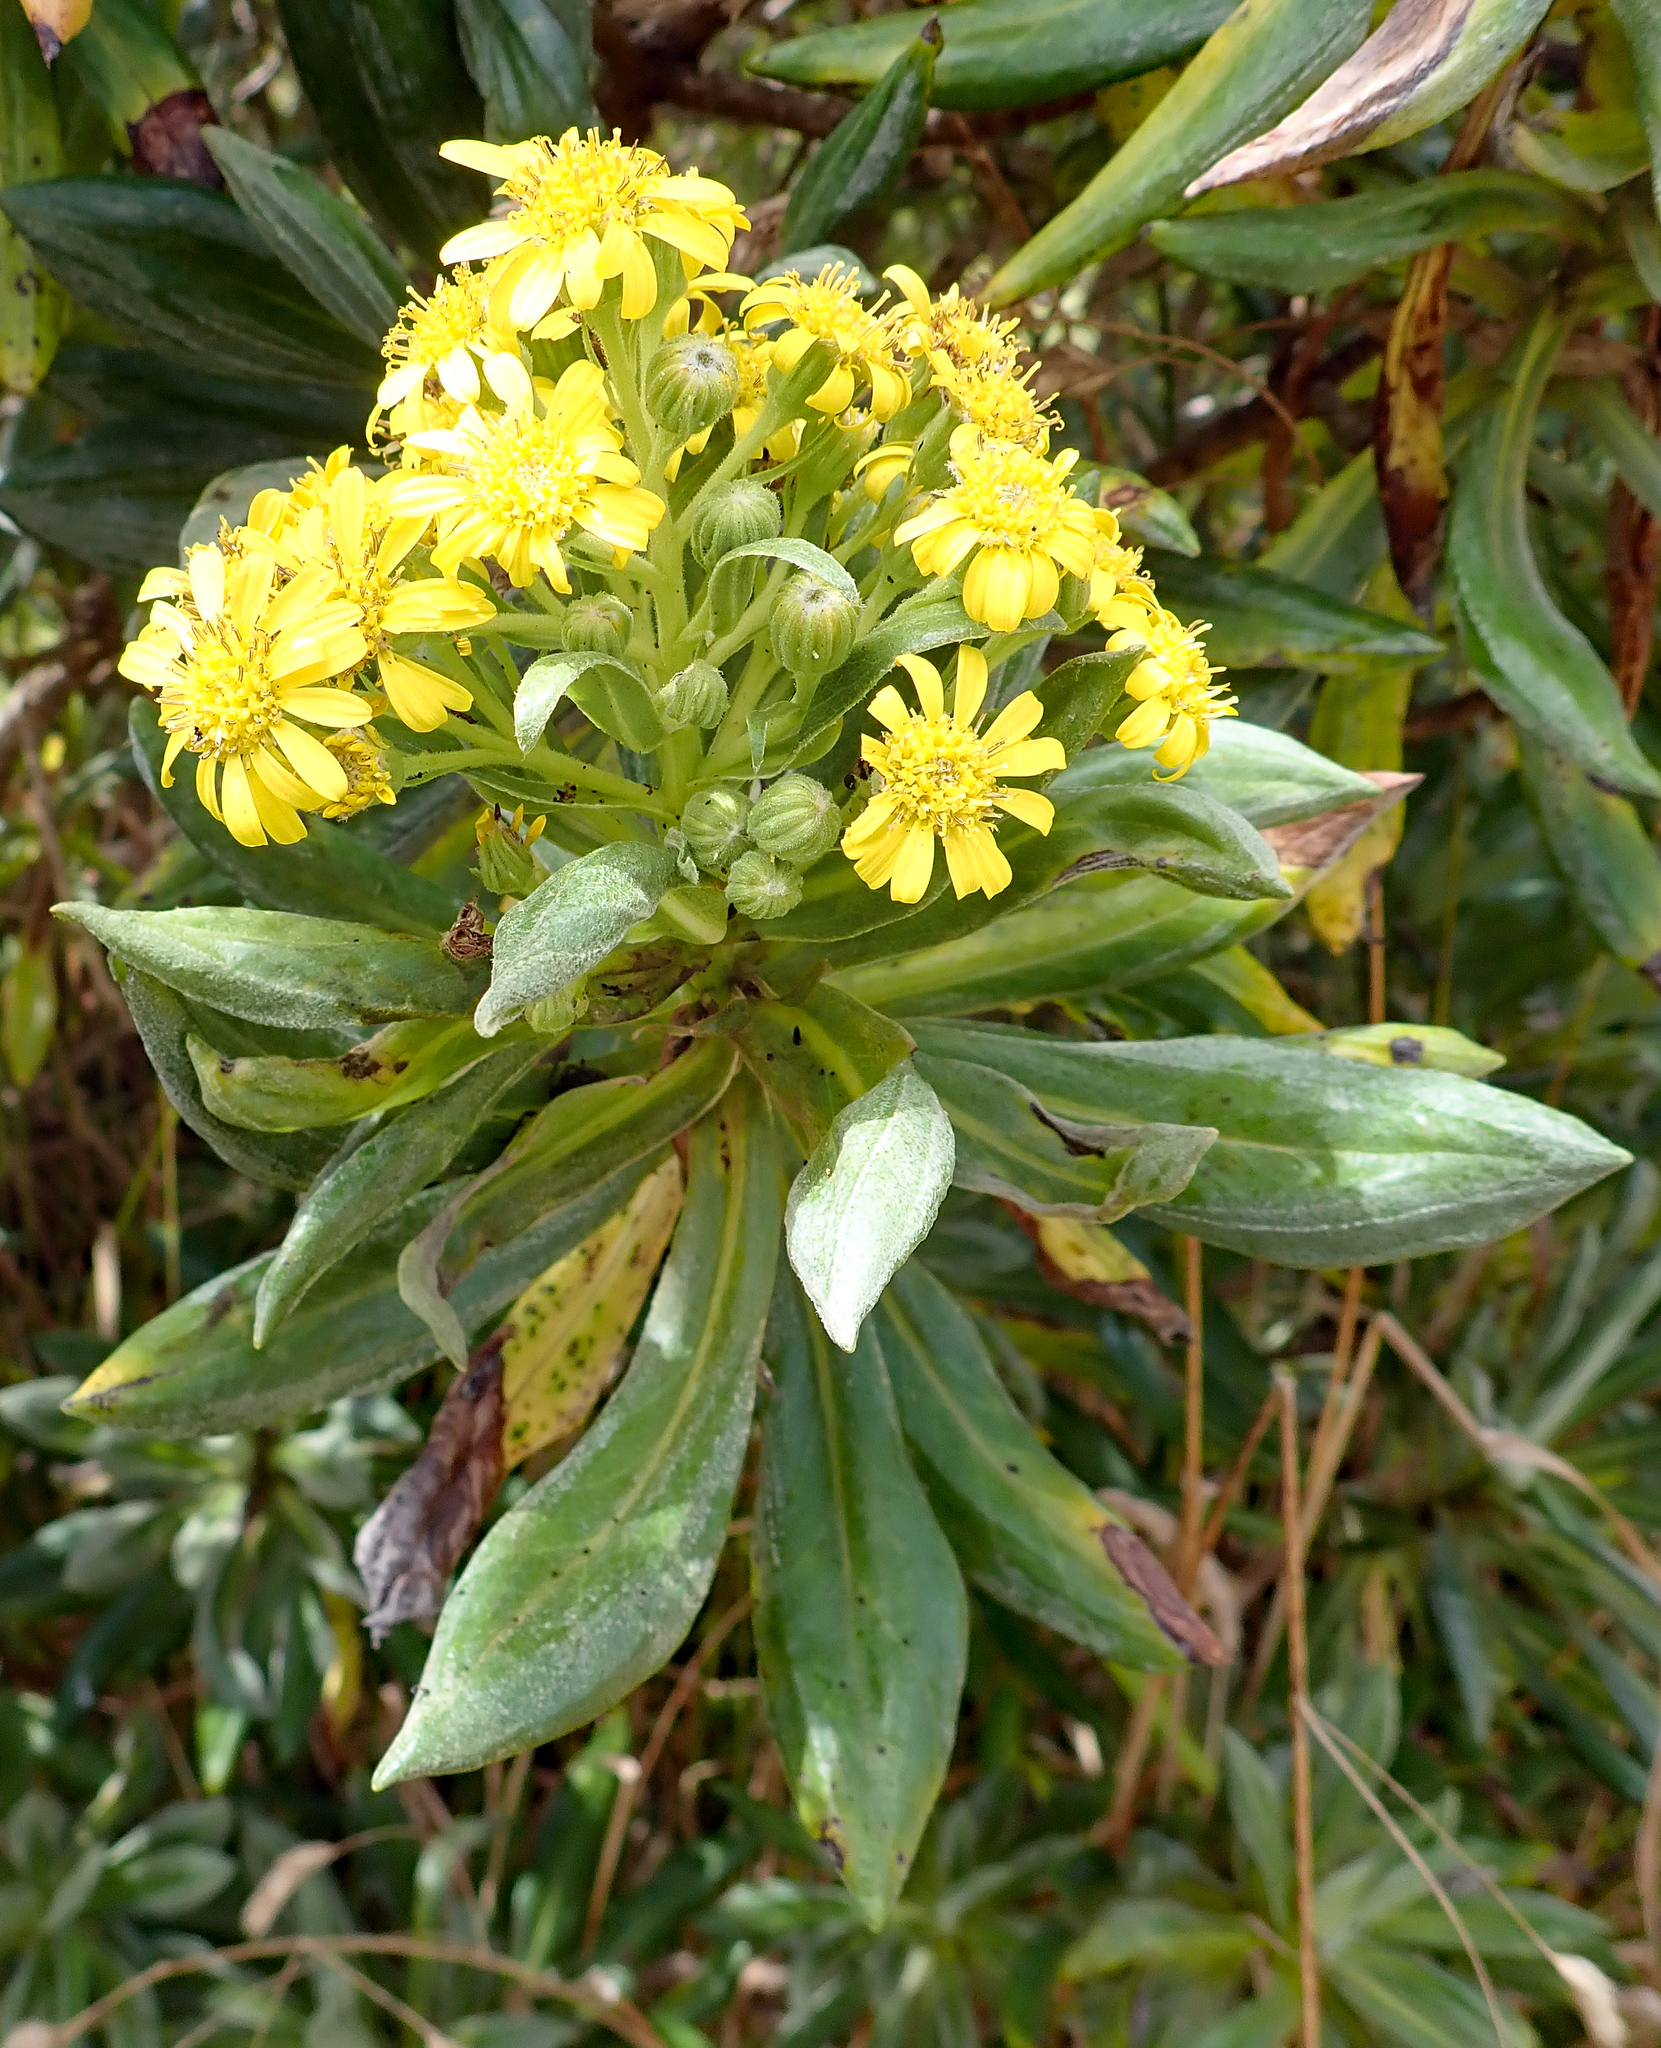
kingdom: Plantae
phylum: Tracheophyta
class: Magnoliopsida
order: Asterales
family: Asteraceae
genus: Brachyglottis
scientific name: Brachyglottis huntii
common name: Chatham island christmas tree
